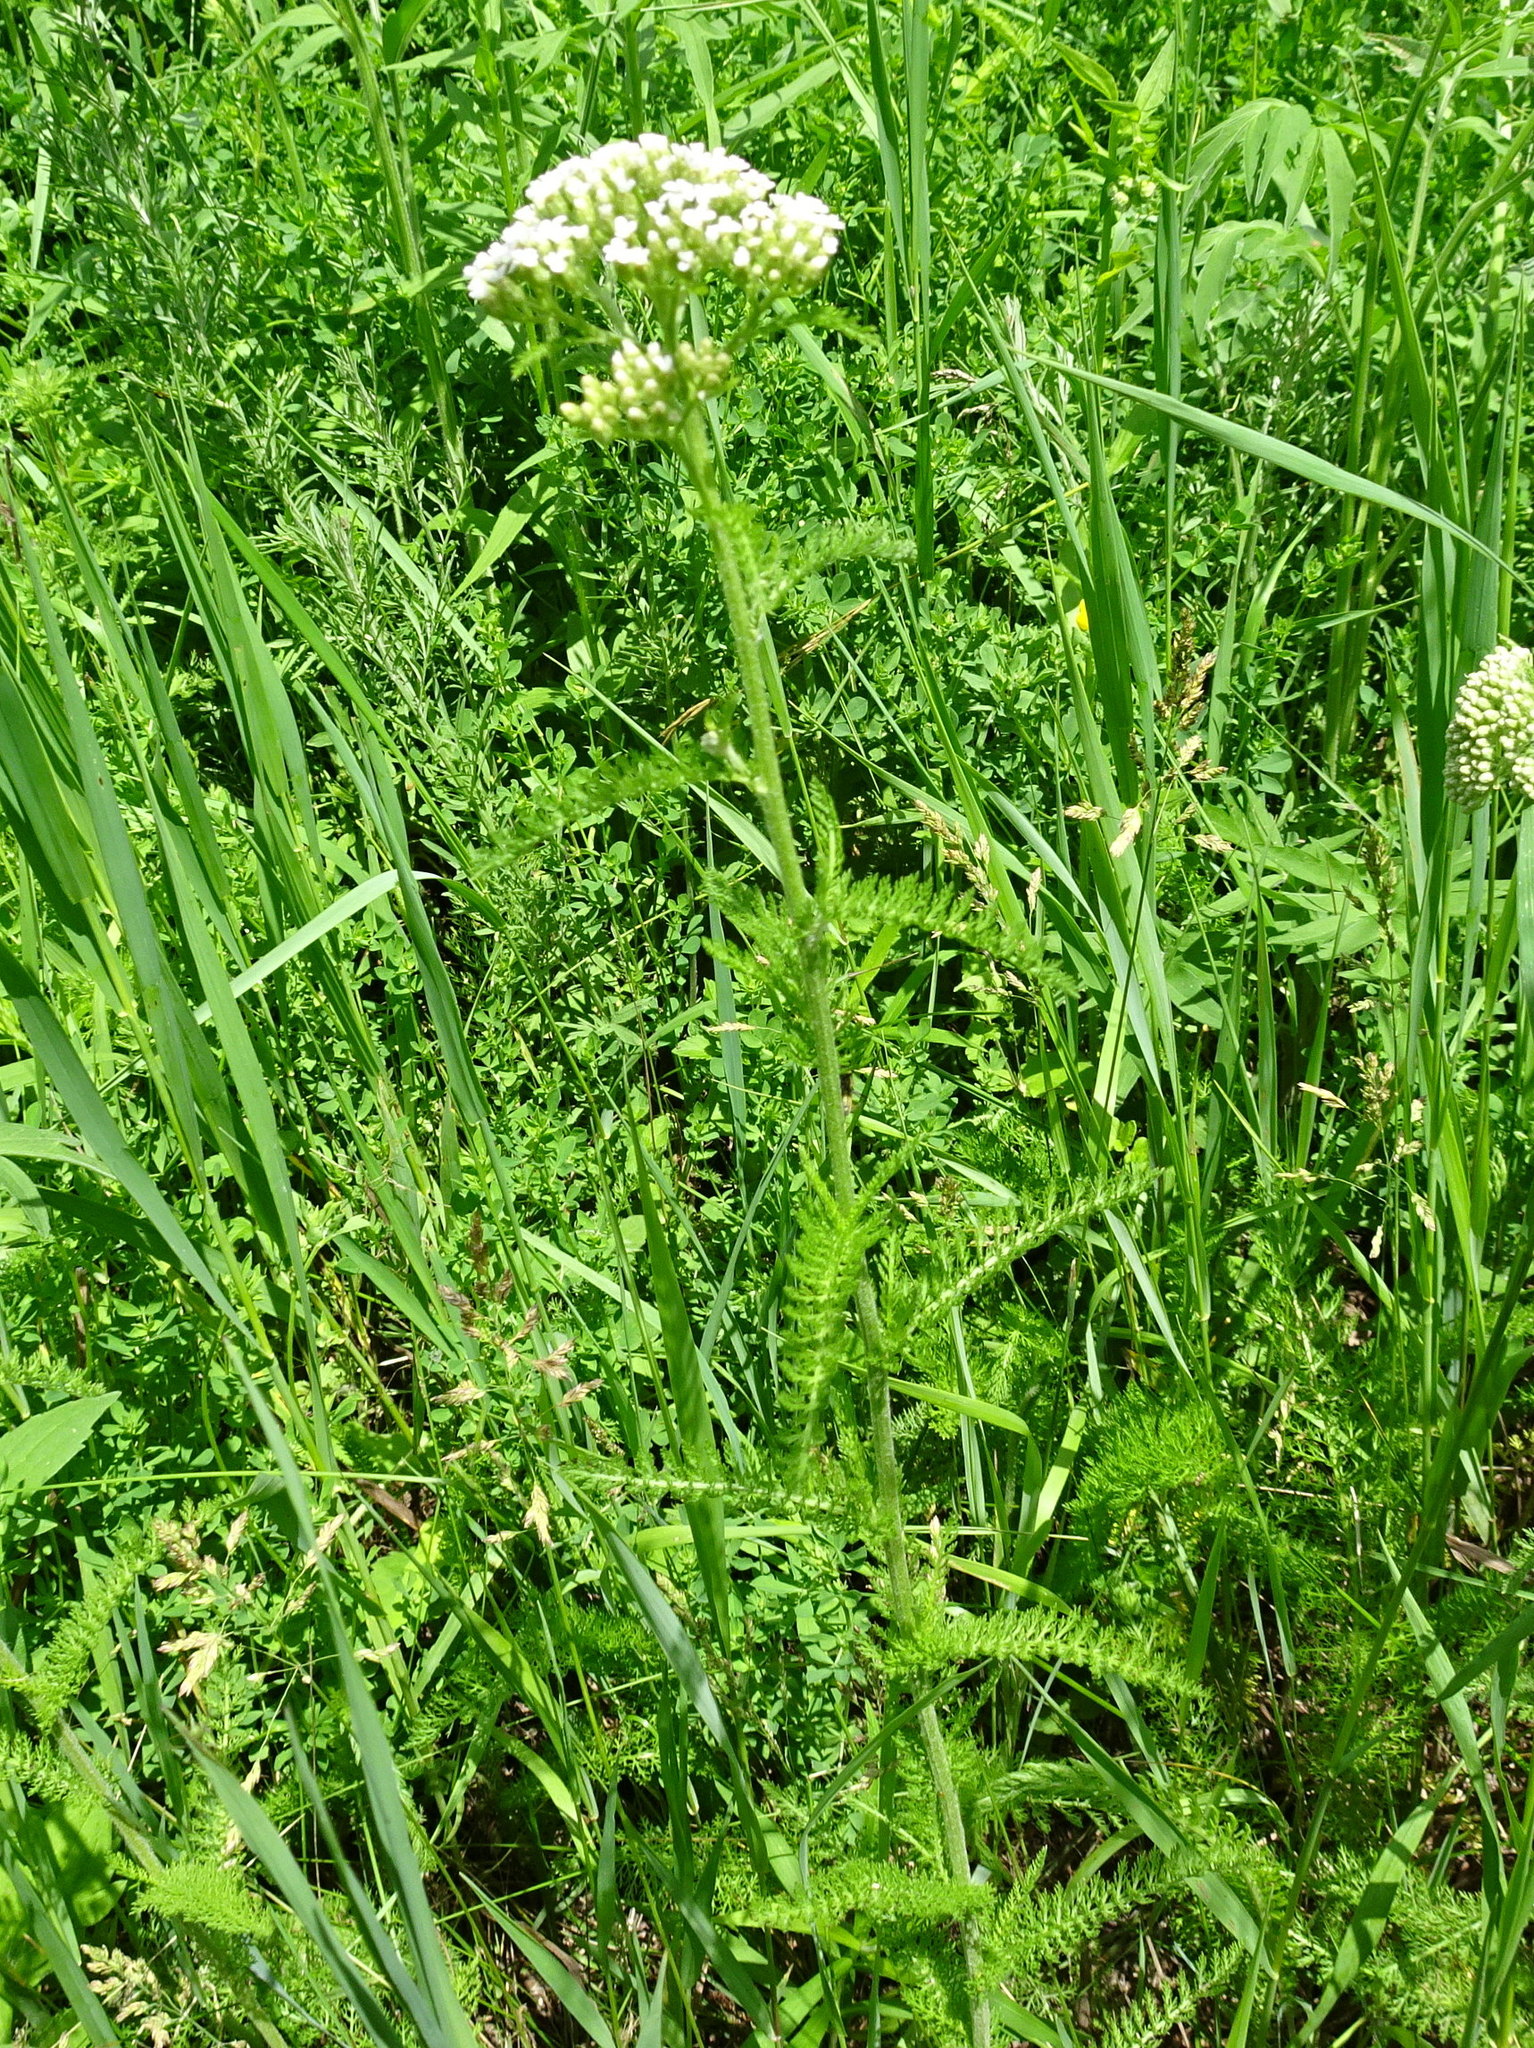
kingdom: Plantae
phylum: Tracheophyta
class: Magnoliopsida
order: Asterales
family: Asteraceae
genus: Achillea
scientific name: Achillea millefolium
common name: Yarrow
